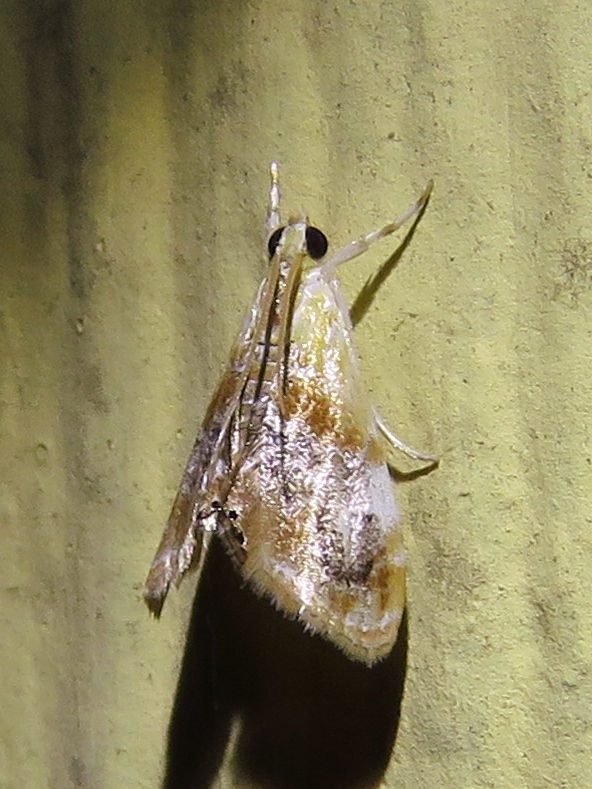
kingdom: Animalia
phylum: Arthropoda
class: Insecta
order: Lepidoptera
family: Crambidae
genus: Dicymolomia
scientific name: Dicymolomia julianalis
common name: Julia's dicymolomia moth
